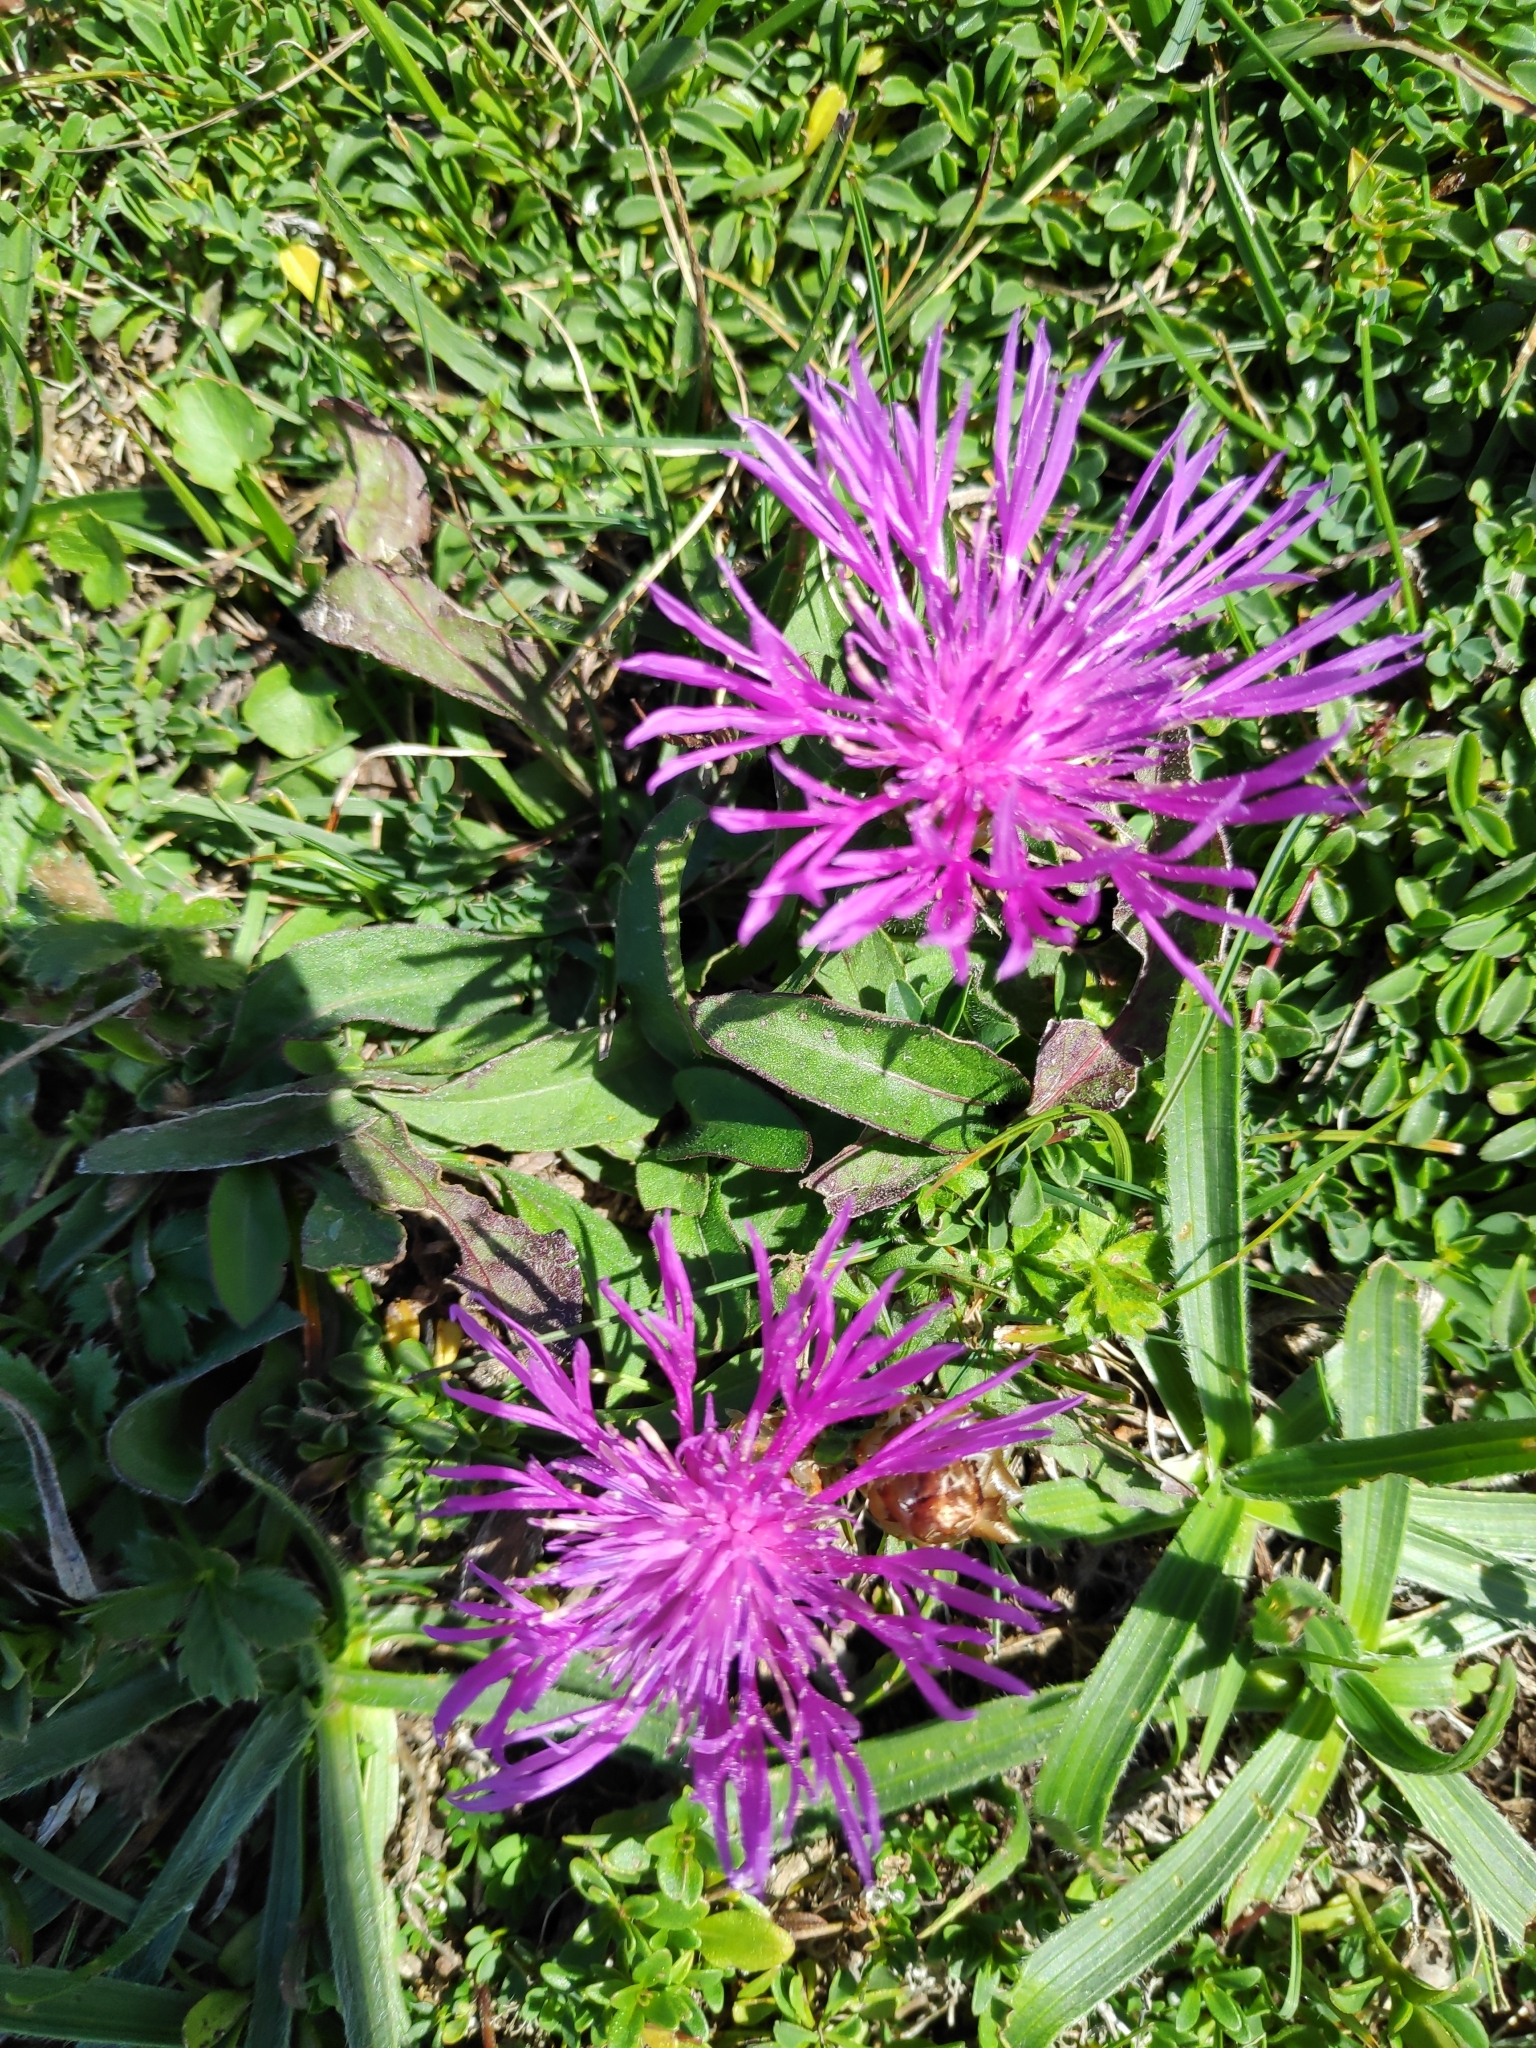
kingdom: Plantae
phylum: Tracheophyta
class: Magnoliopsida
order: Asterales
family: Asteraceae
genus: Centaurea
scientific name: Centaurea jacea
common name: Brown knapweed
